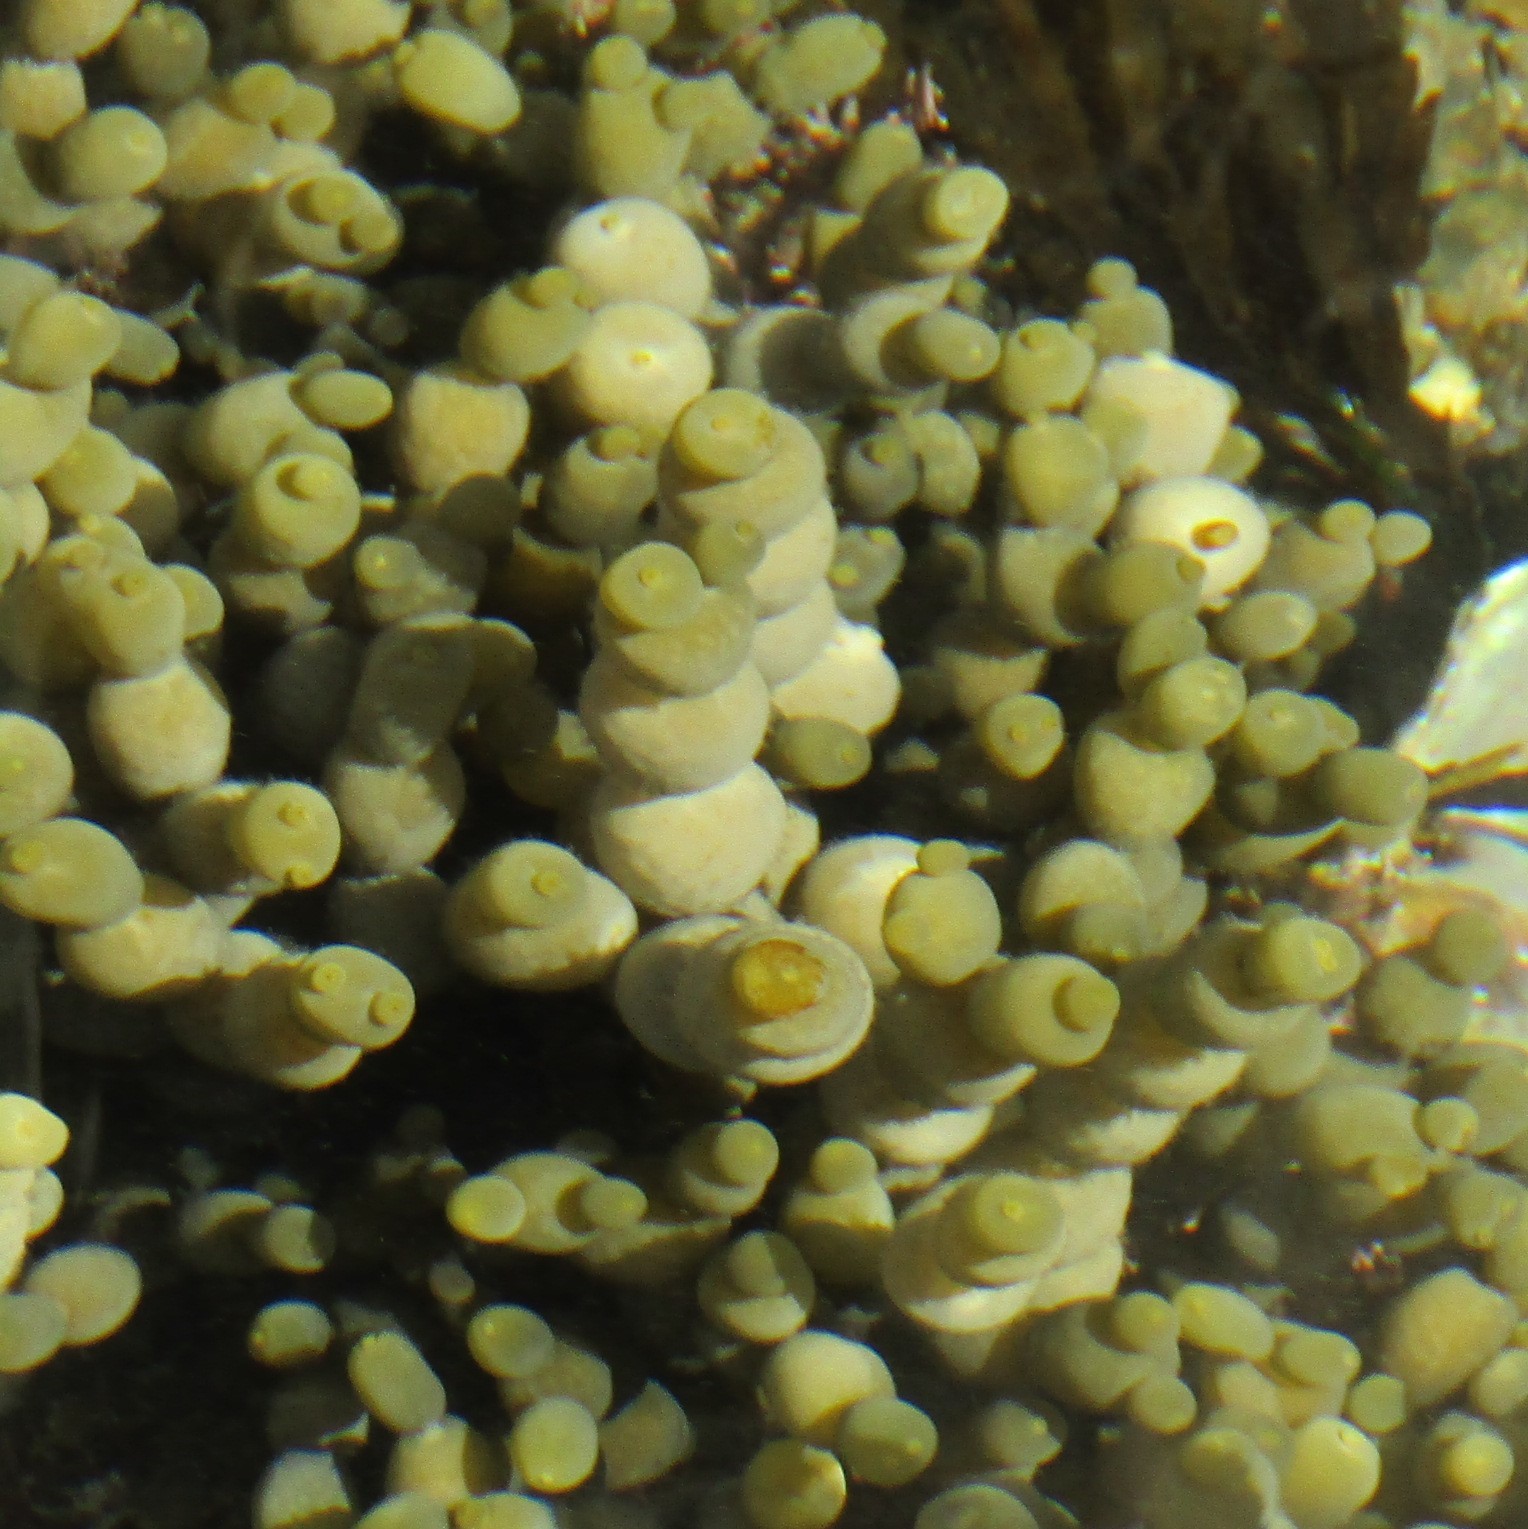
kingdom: Chromista
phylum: Ochrophyta
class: Phaeophyceae
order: Fucales
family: Hormosiraceae
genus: Hormosira
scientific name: Hormosira banksii
